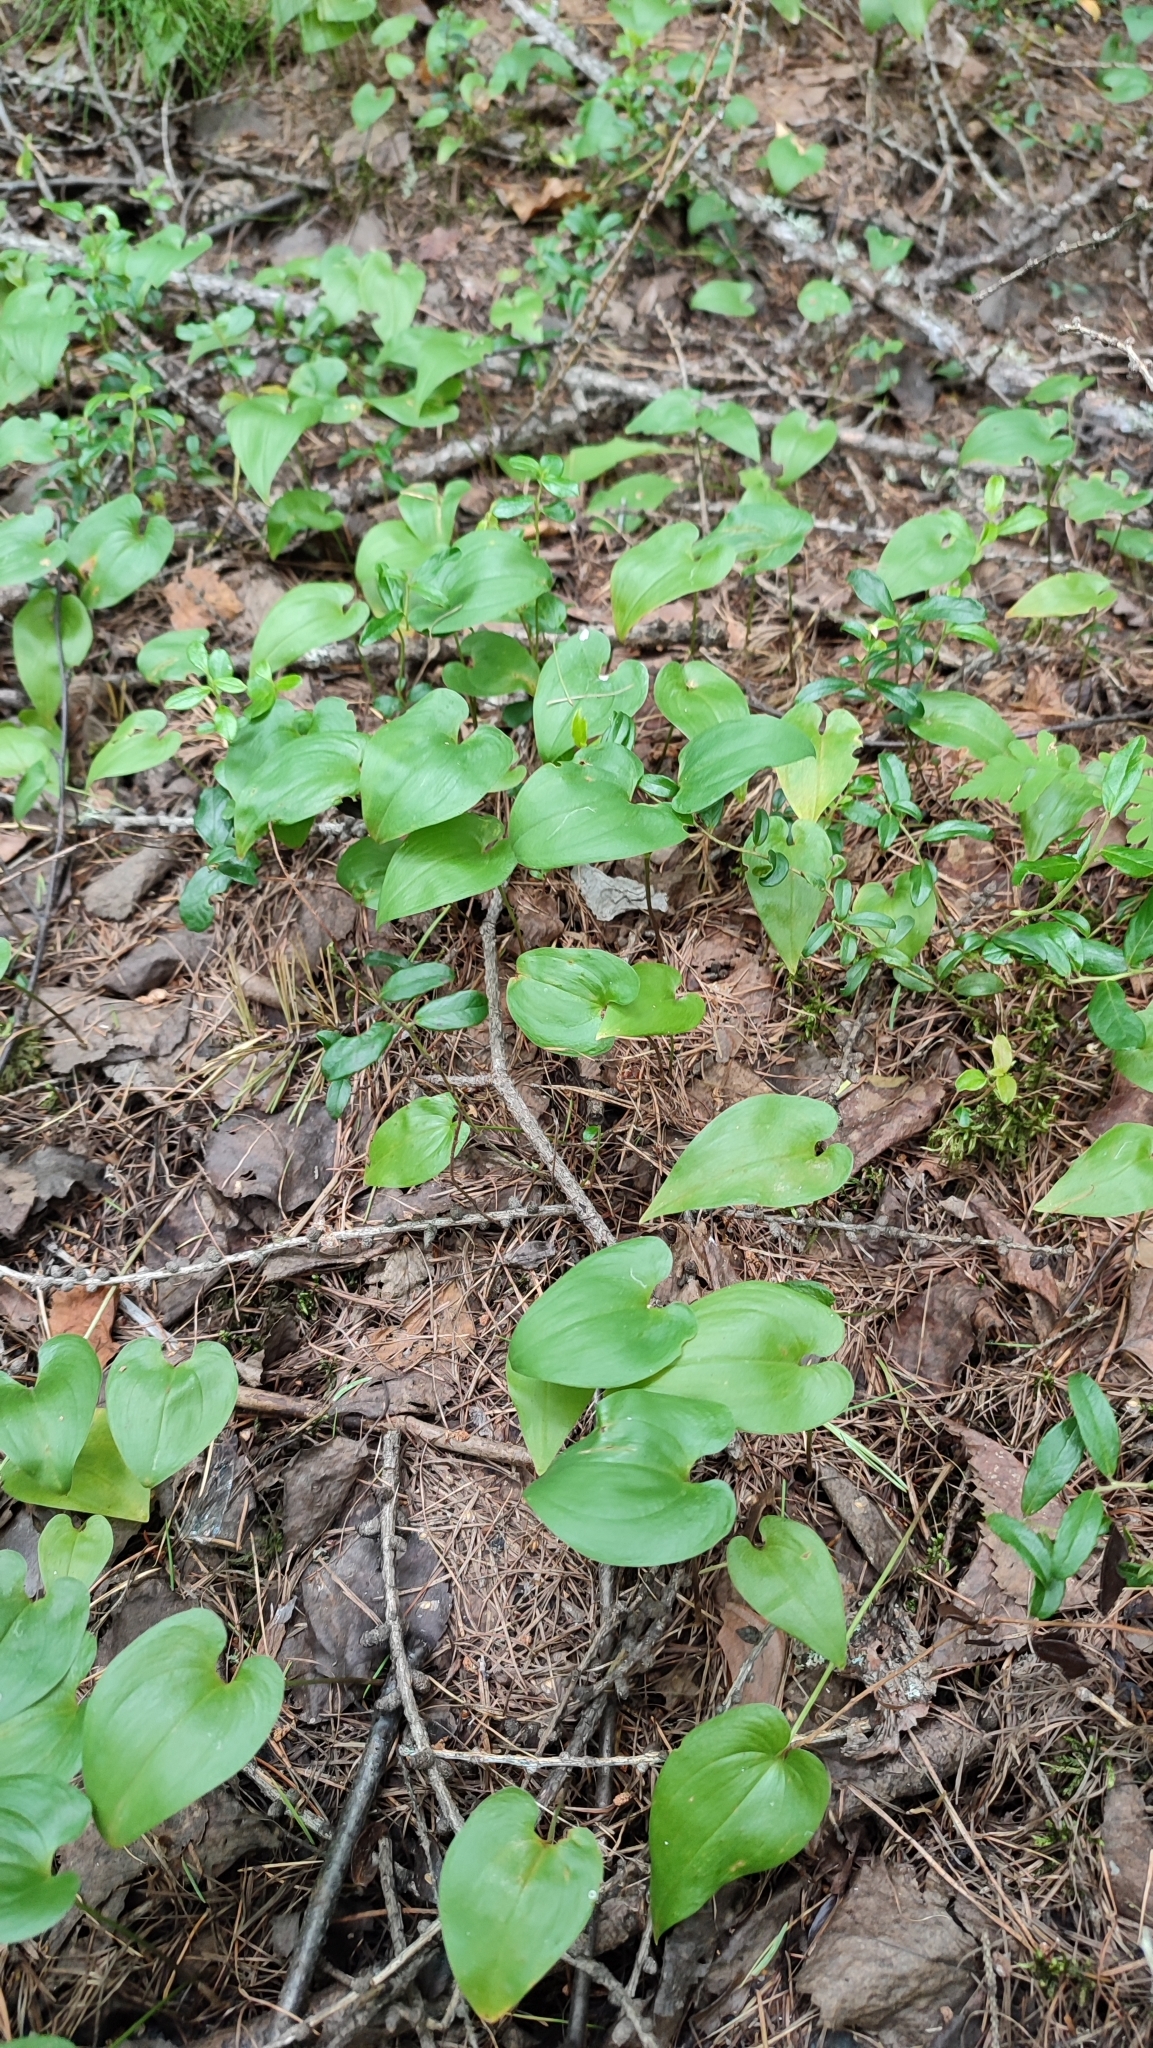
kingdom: Plantae
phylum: Tracheophyta
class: Liliopsida
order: Asparagales
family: Asparagaceae
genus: Maianthemum
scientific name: Maianthemum bifolium
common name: May lily
